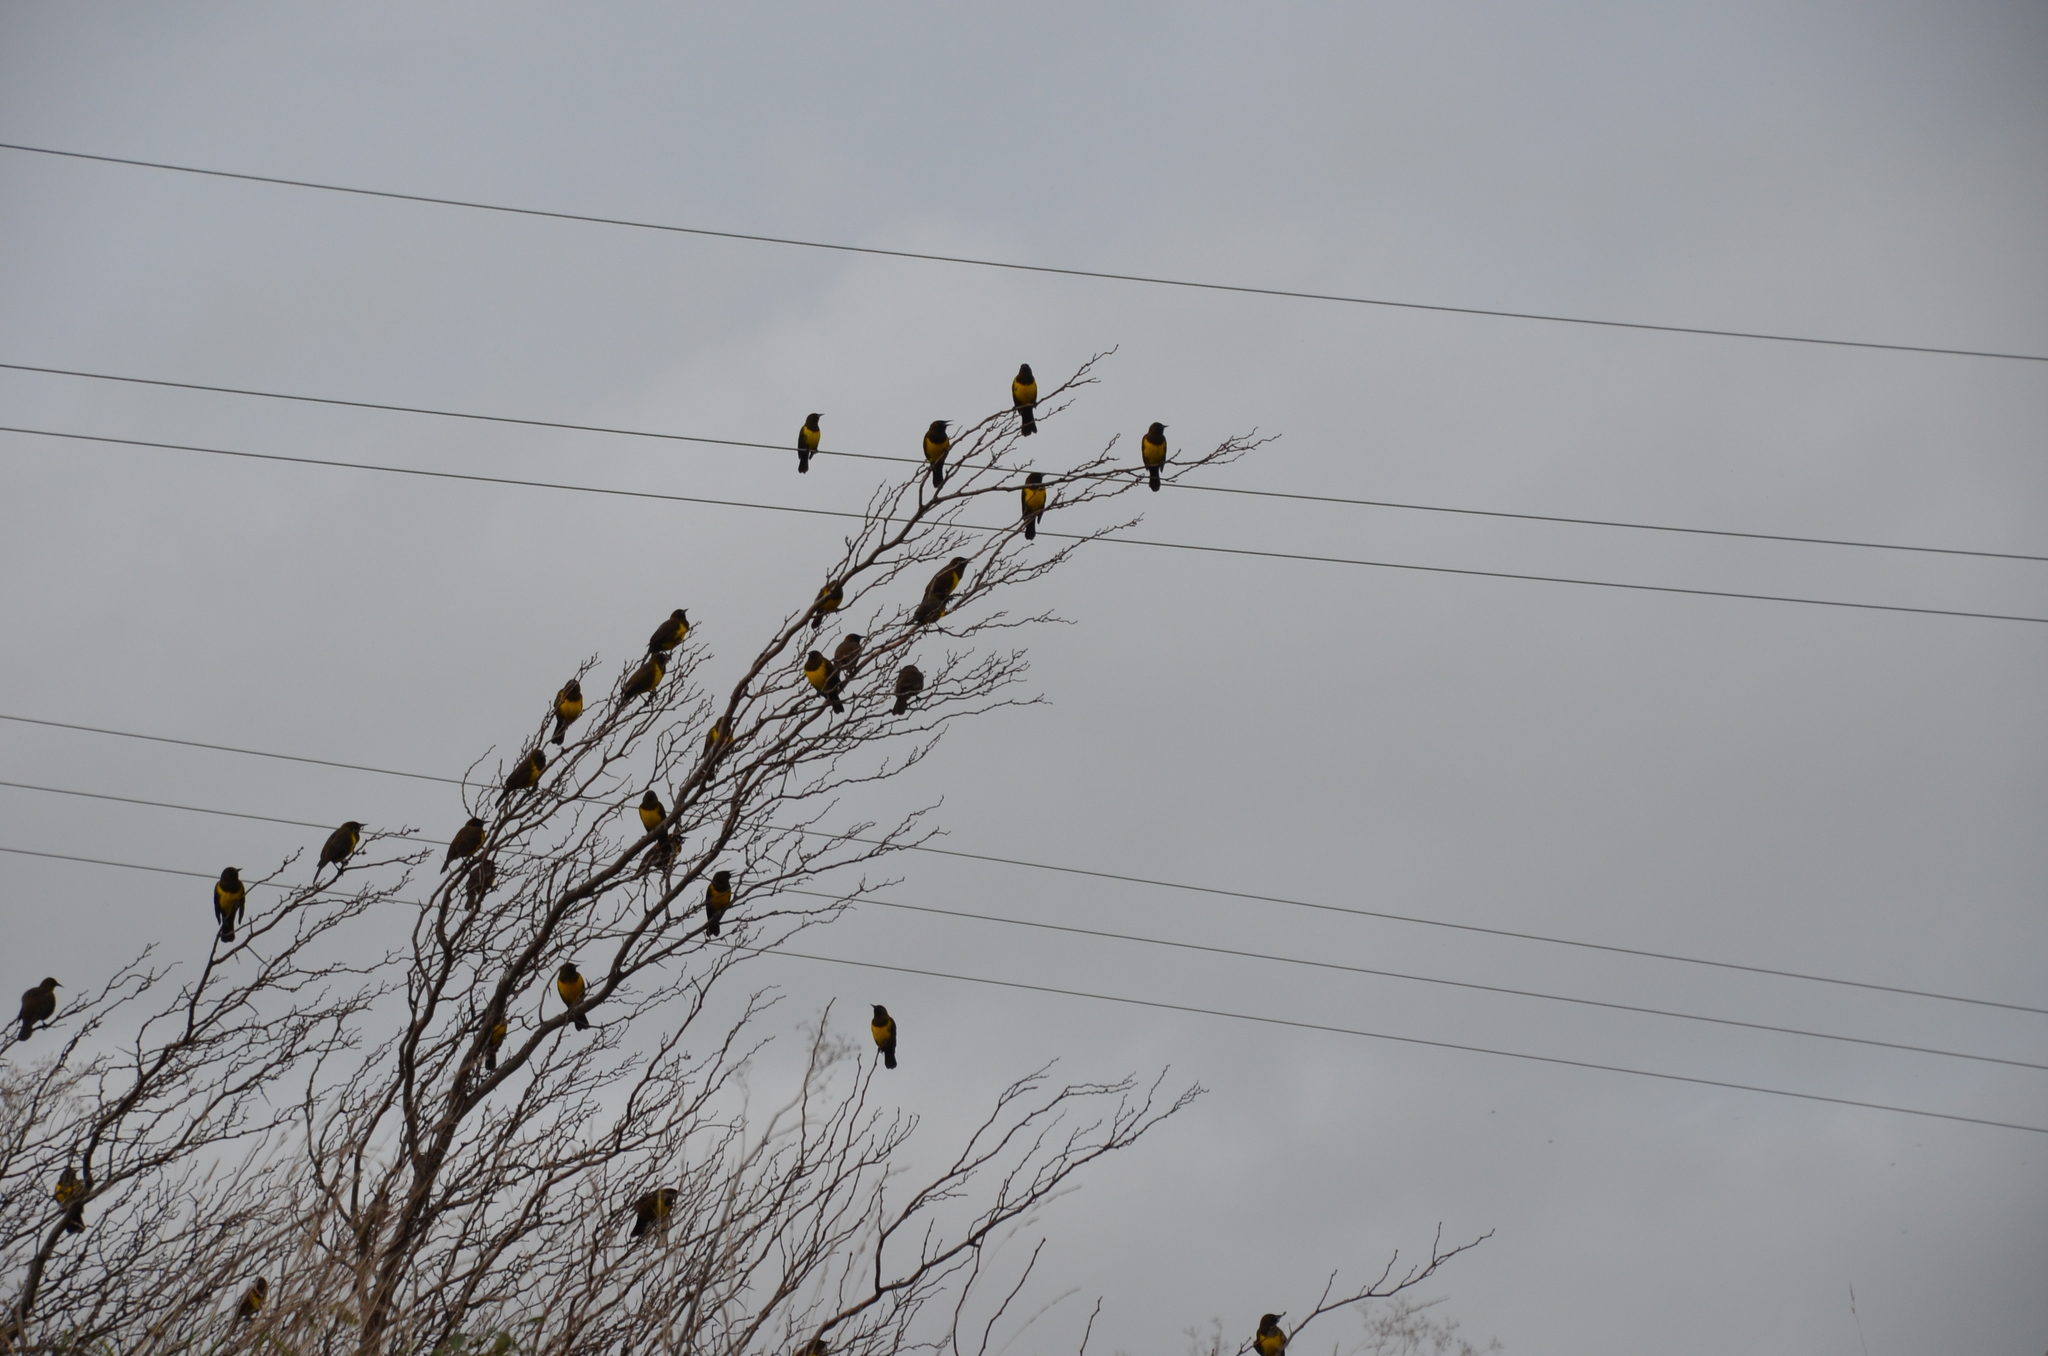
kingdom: Animalia
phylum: Chordata
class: Aves
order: Passeriformes
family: Icteridae
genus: Pseudoleistes
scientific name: Pseudoleistes virescens
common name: Brown-and-yellow marshbird
